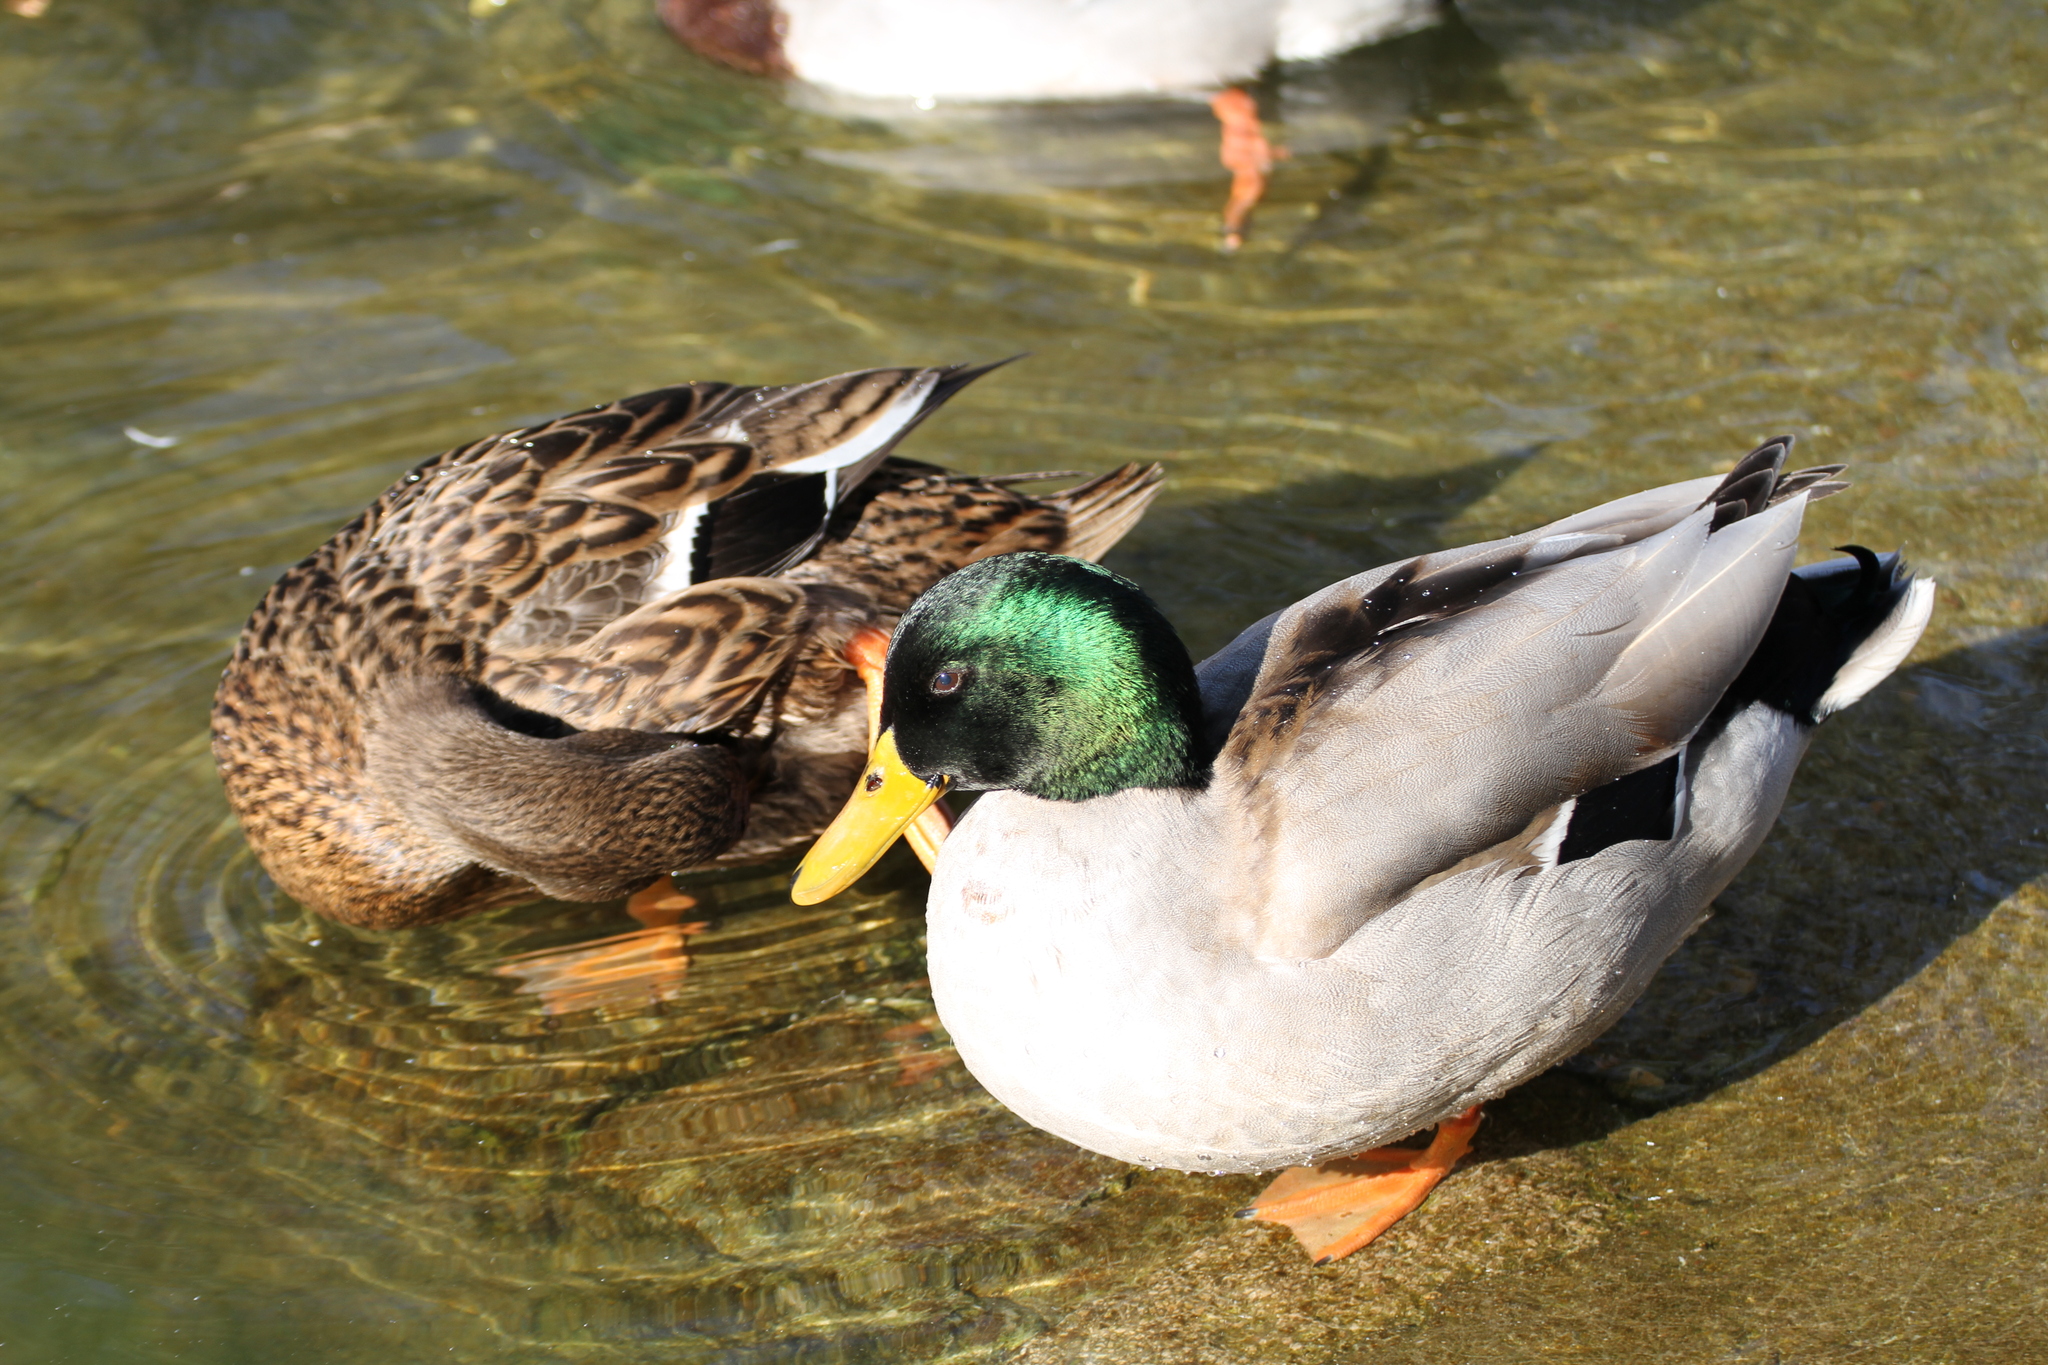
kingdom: Animalia
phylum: Chordata
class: Aves
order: Anseriformes
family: Anatidae
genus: Anas
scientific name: Anas platyrhynchos
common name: Mallard
